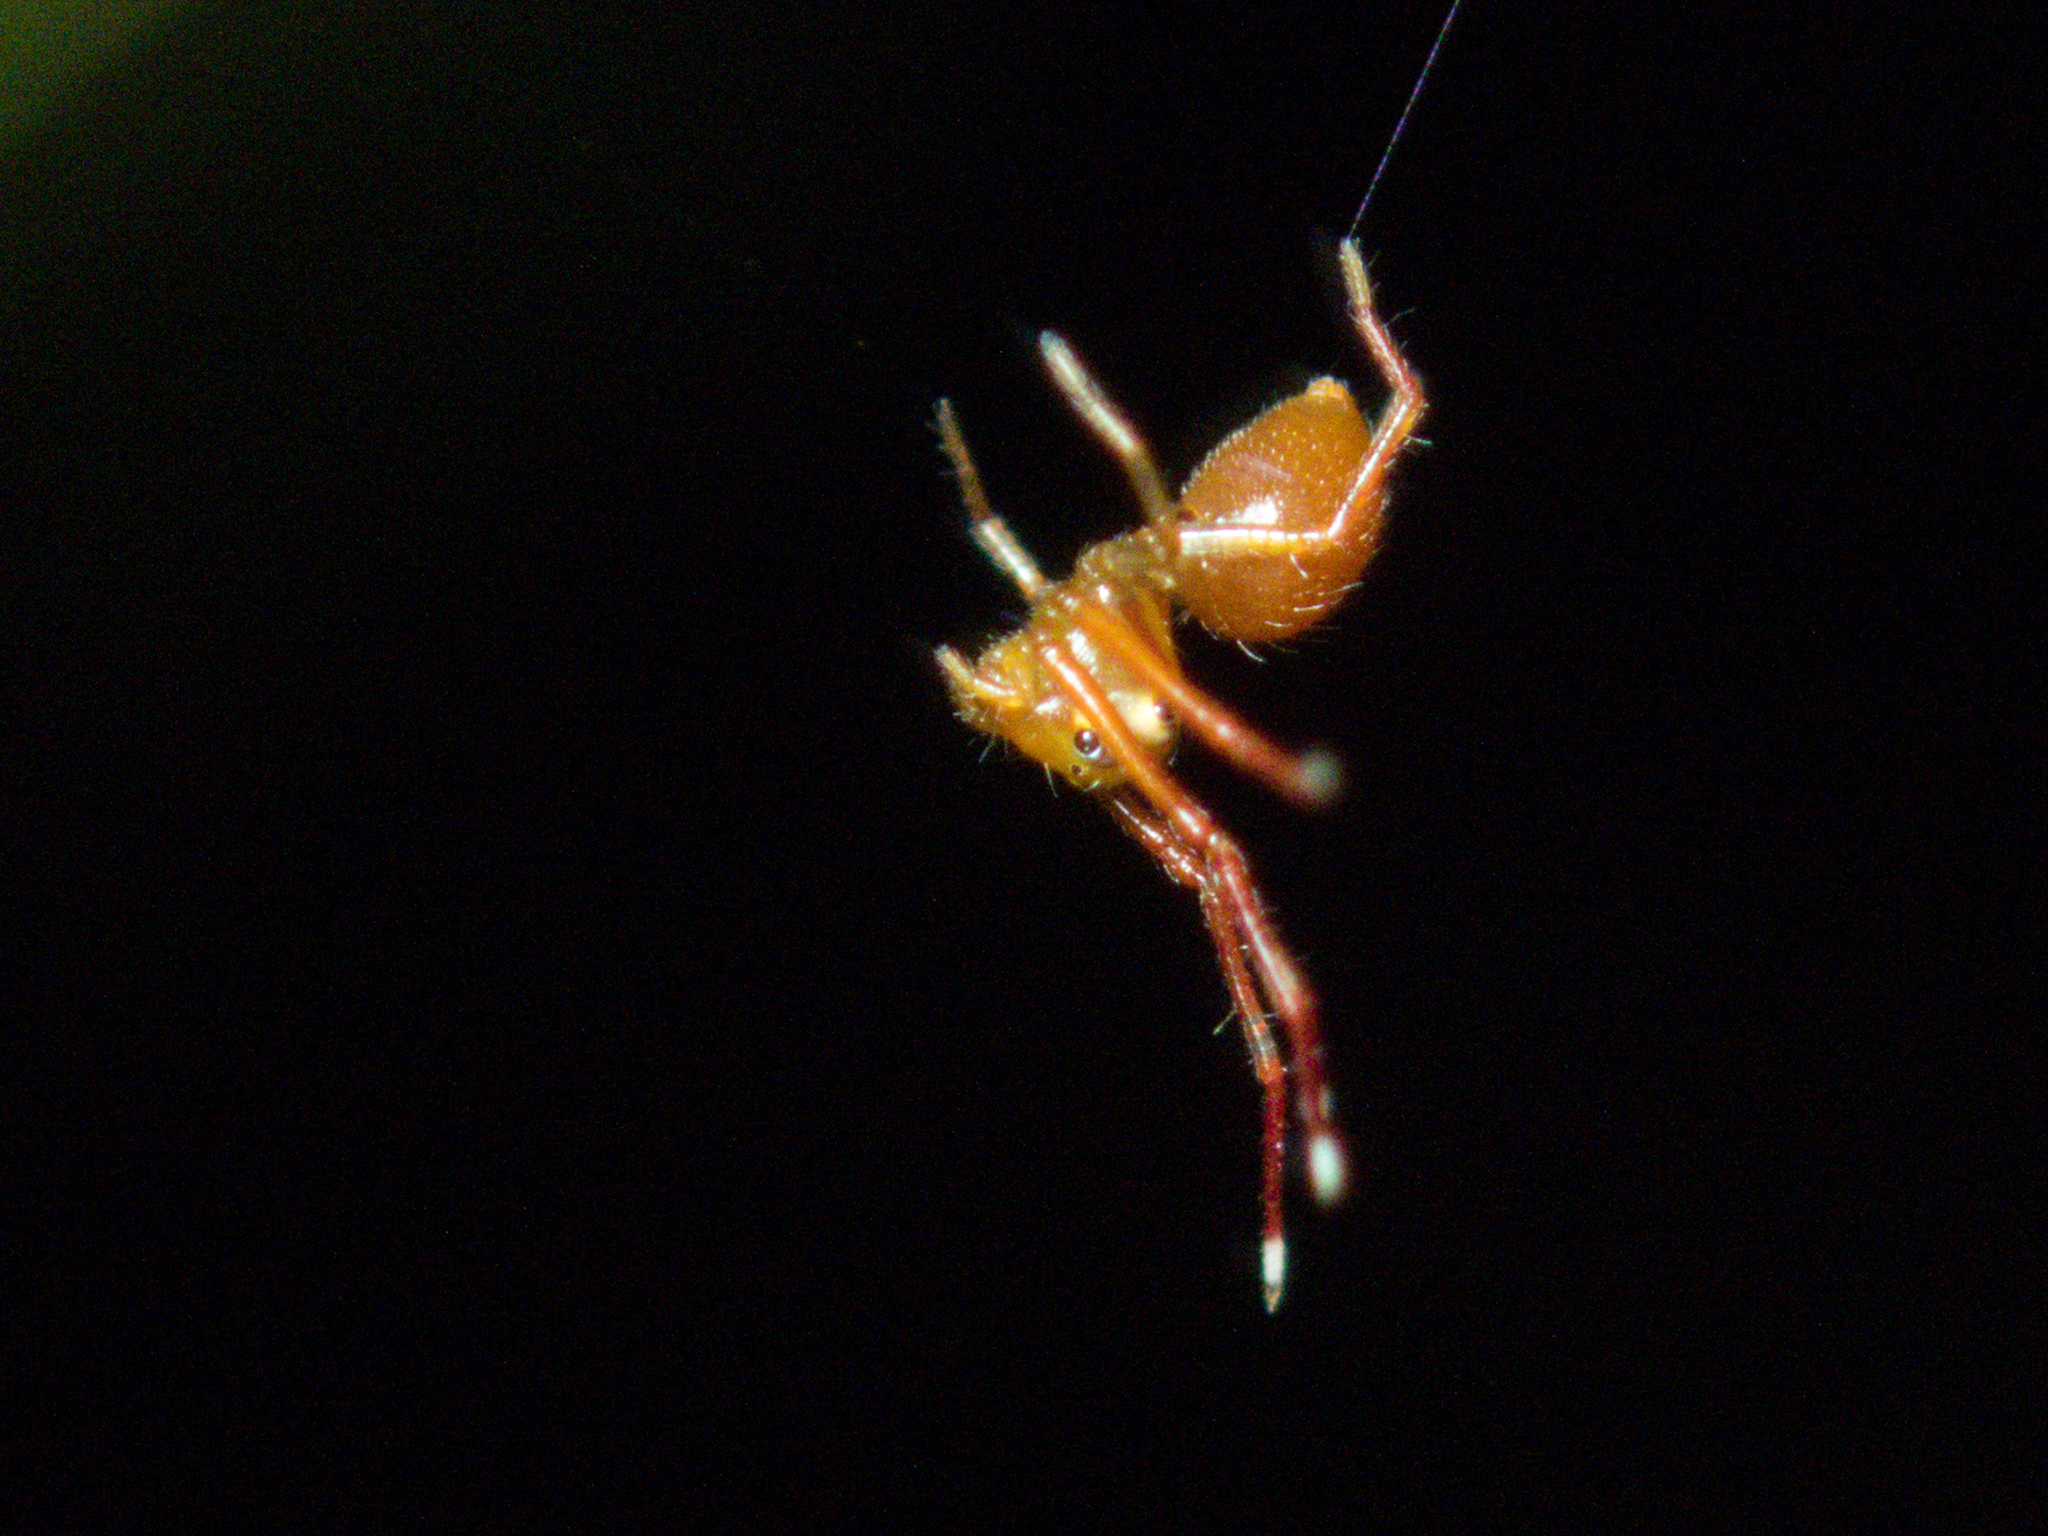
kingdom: Animalia
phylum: Arthropoda
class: Arachnida
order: Araneae
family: Thomisidae
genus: Amyciaea
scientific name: Amyciaea forticeps
